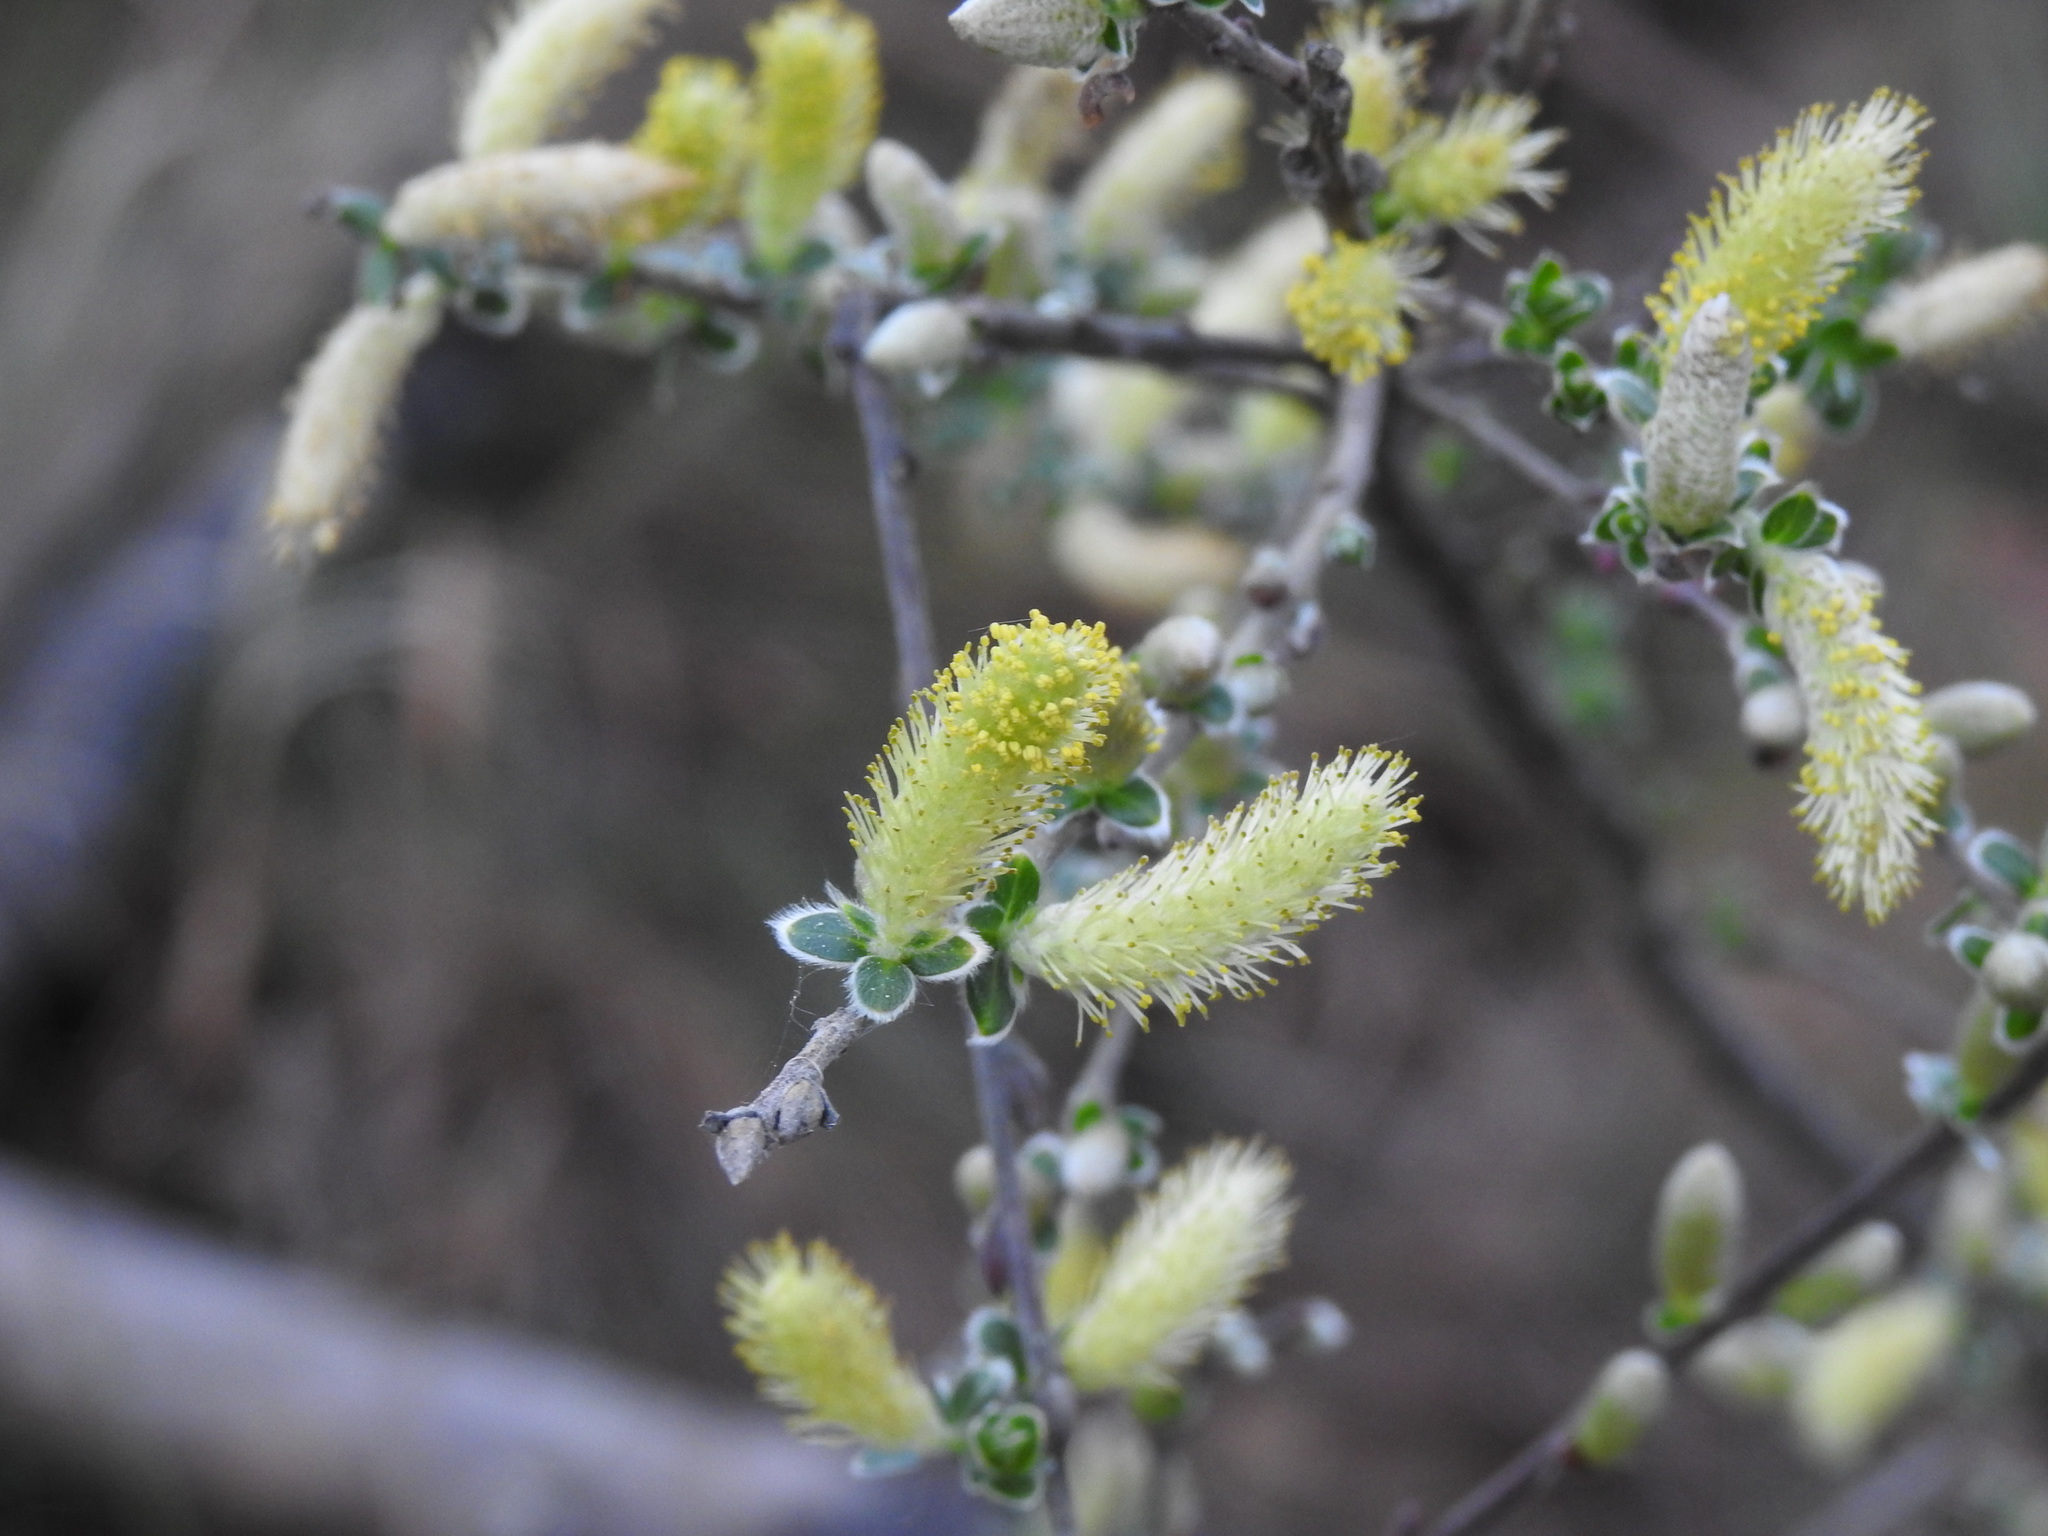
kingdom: Plantae
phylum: Tracheophyta
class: Magnoliopsida
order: Malpighiales
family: Salicaceae
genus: Salix
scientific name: Salix repens
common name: Creeping willow
